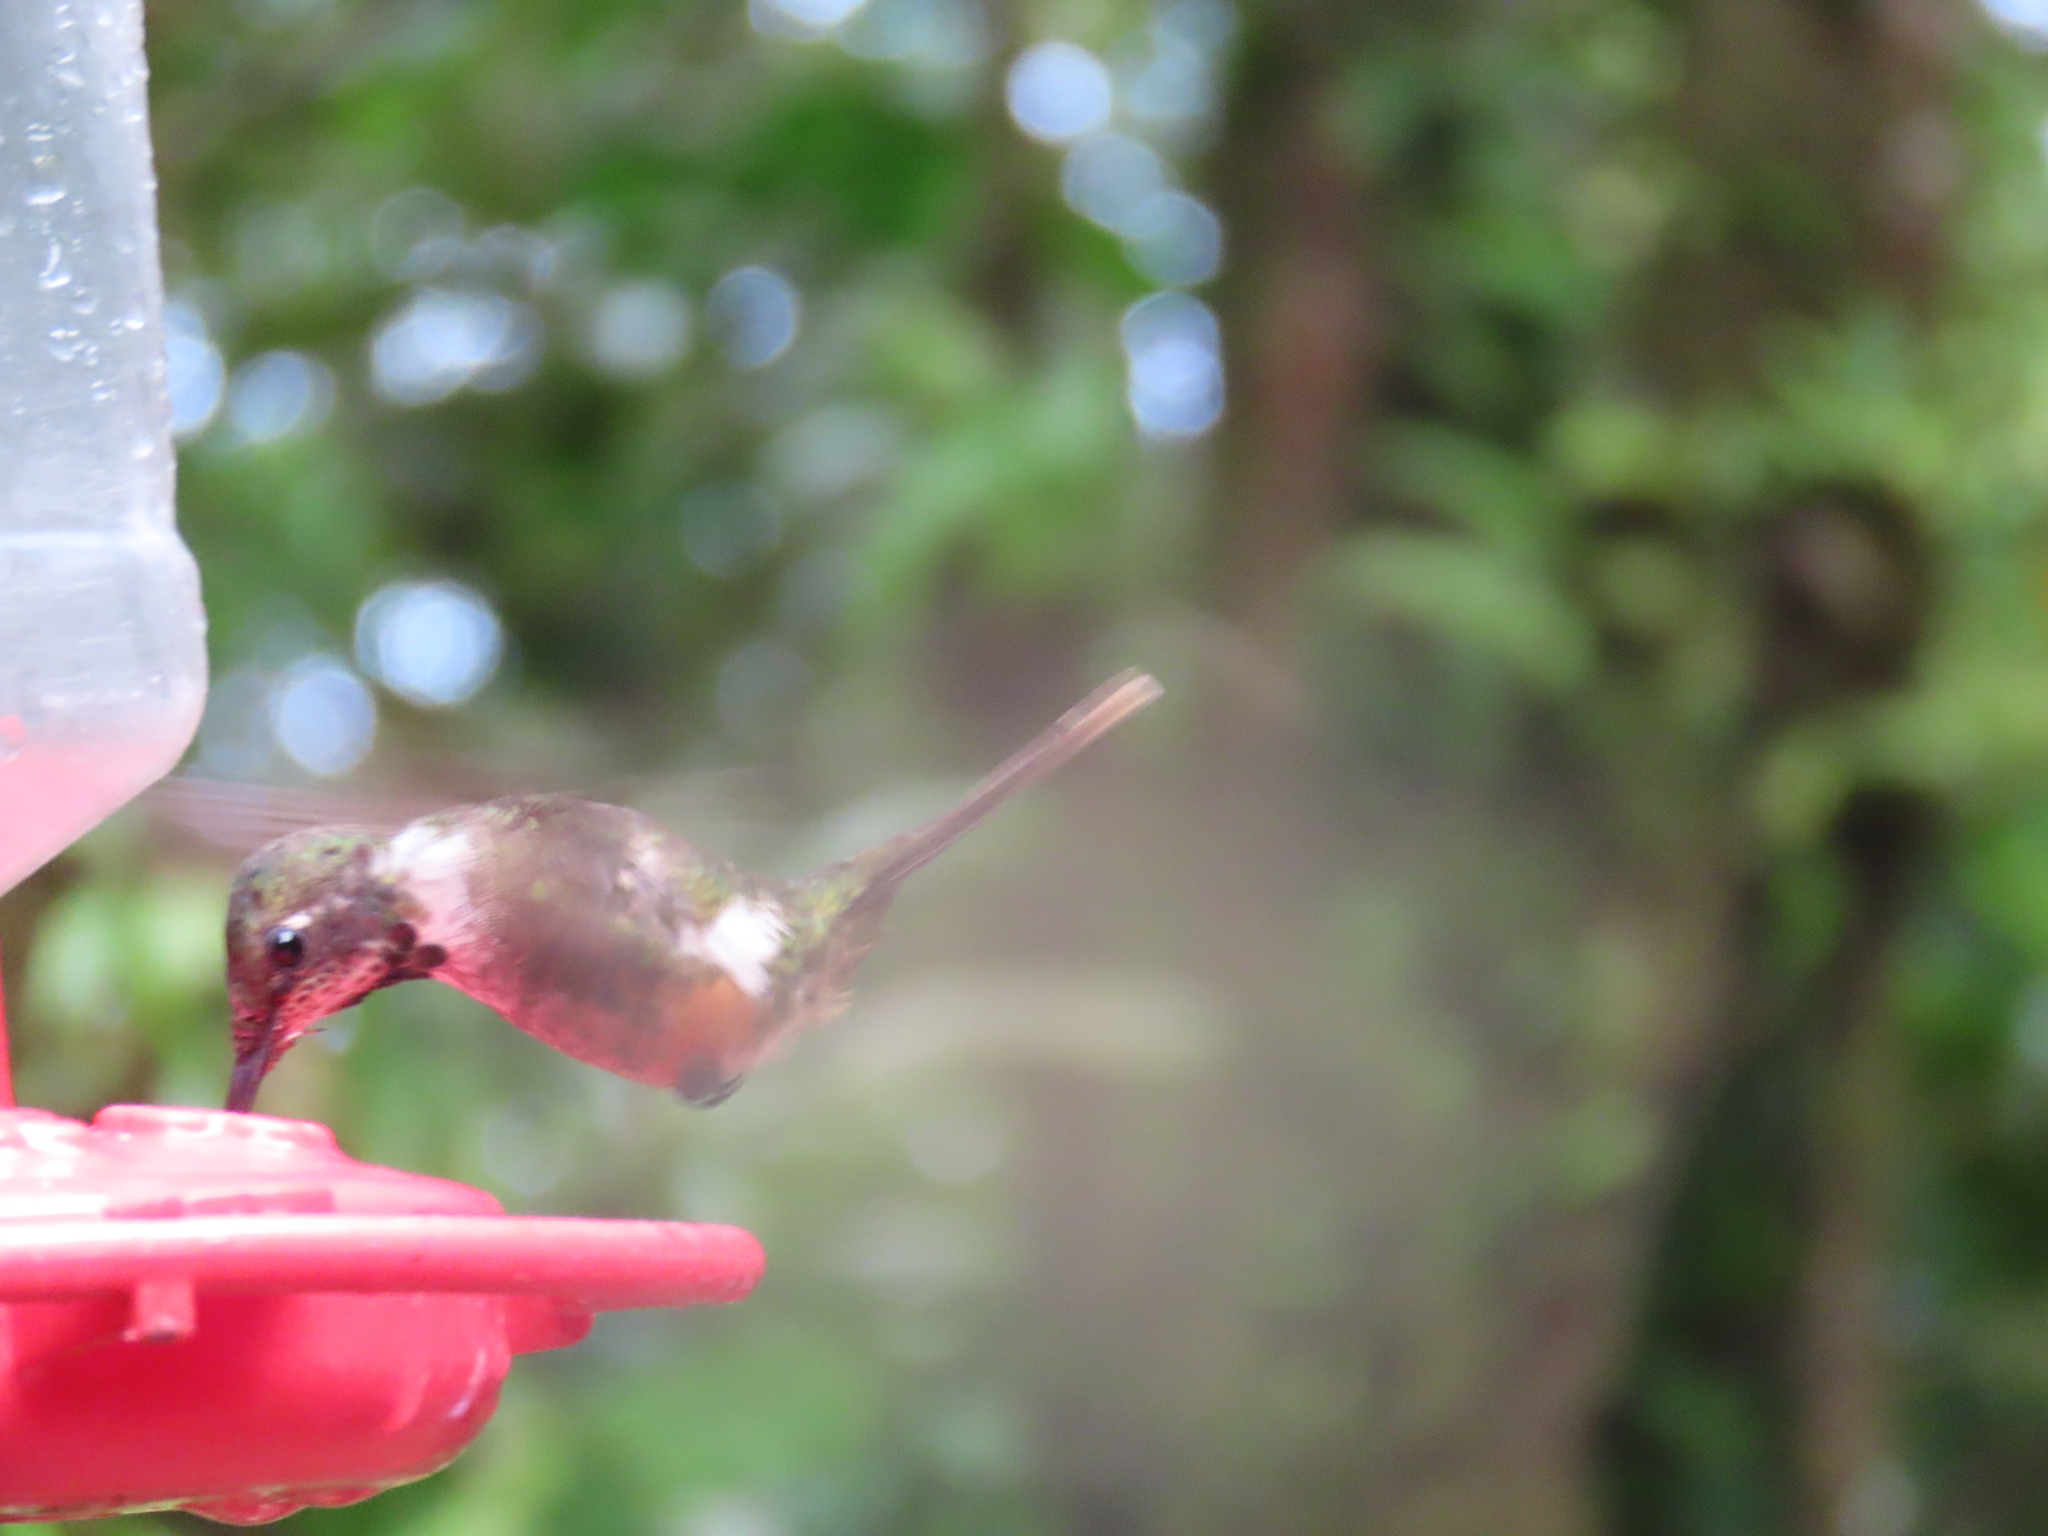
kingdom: Animalia
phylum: Chordata
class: Aves
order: Apodiformes
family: Trochilidae
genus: Calliphlox
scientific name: Calliphlox bryantae
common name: Magenta-throated woodstar
